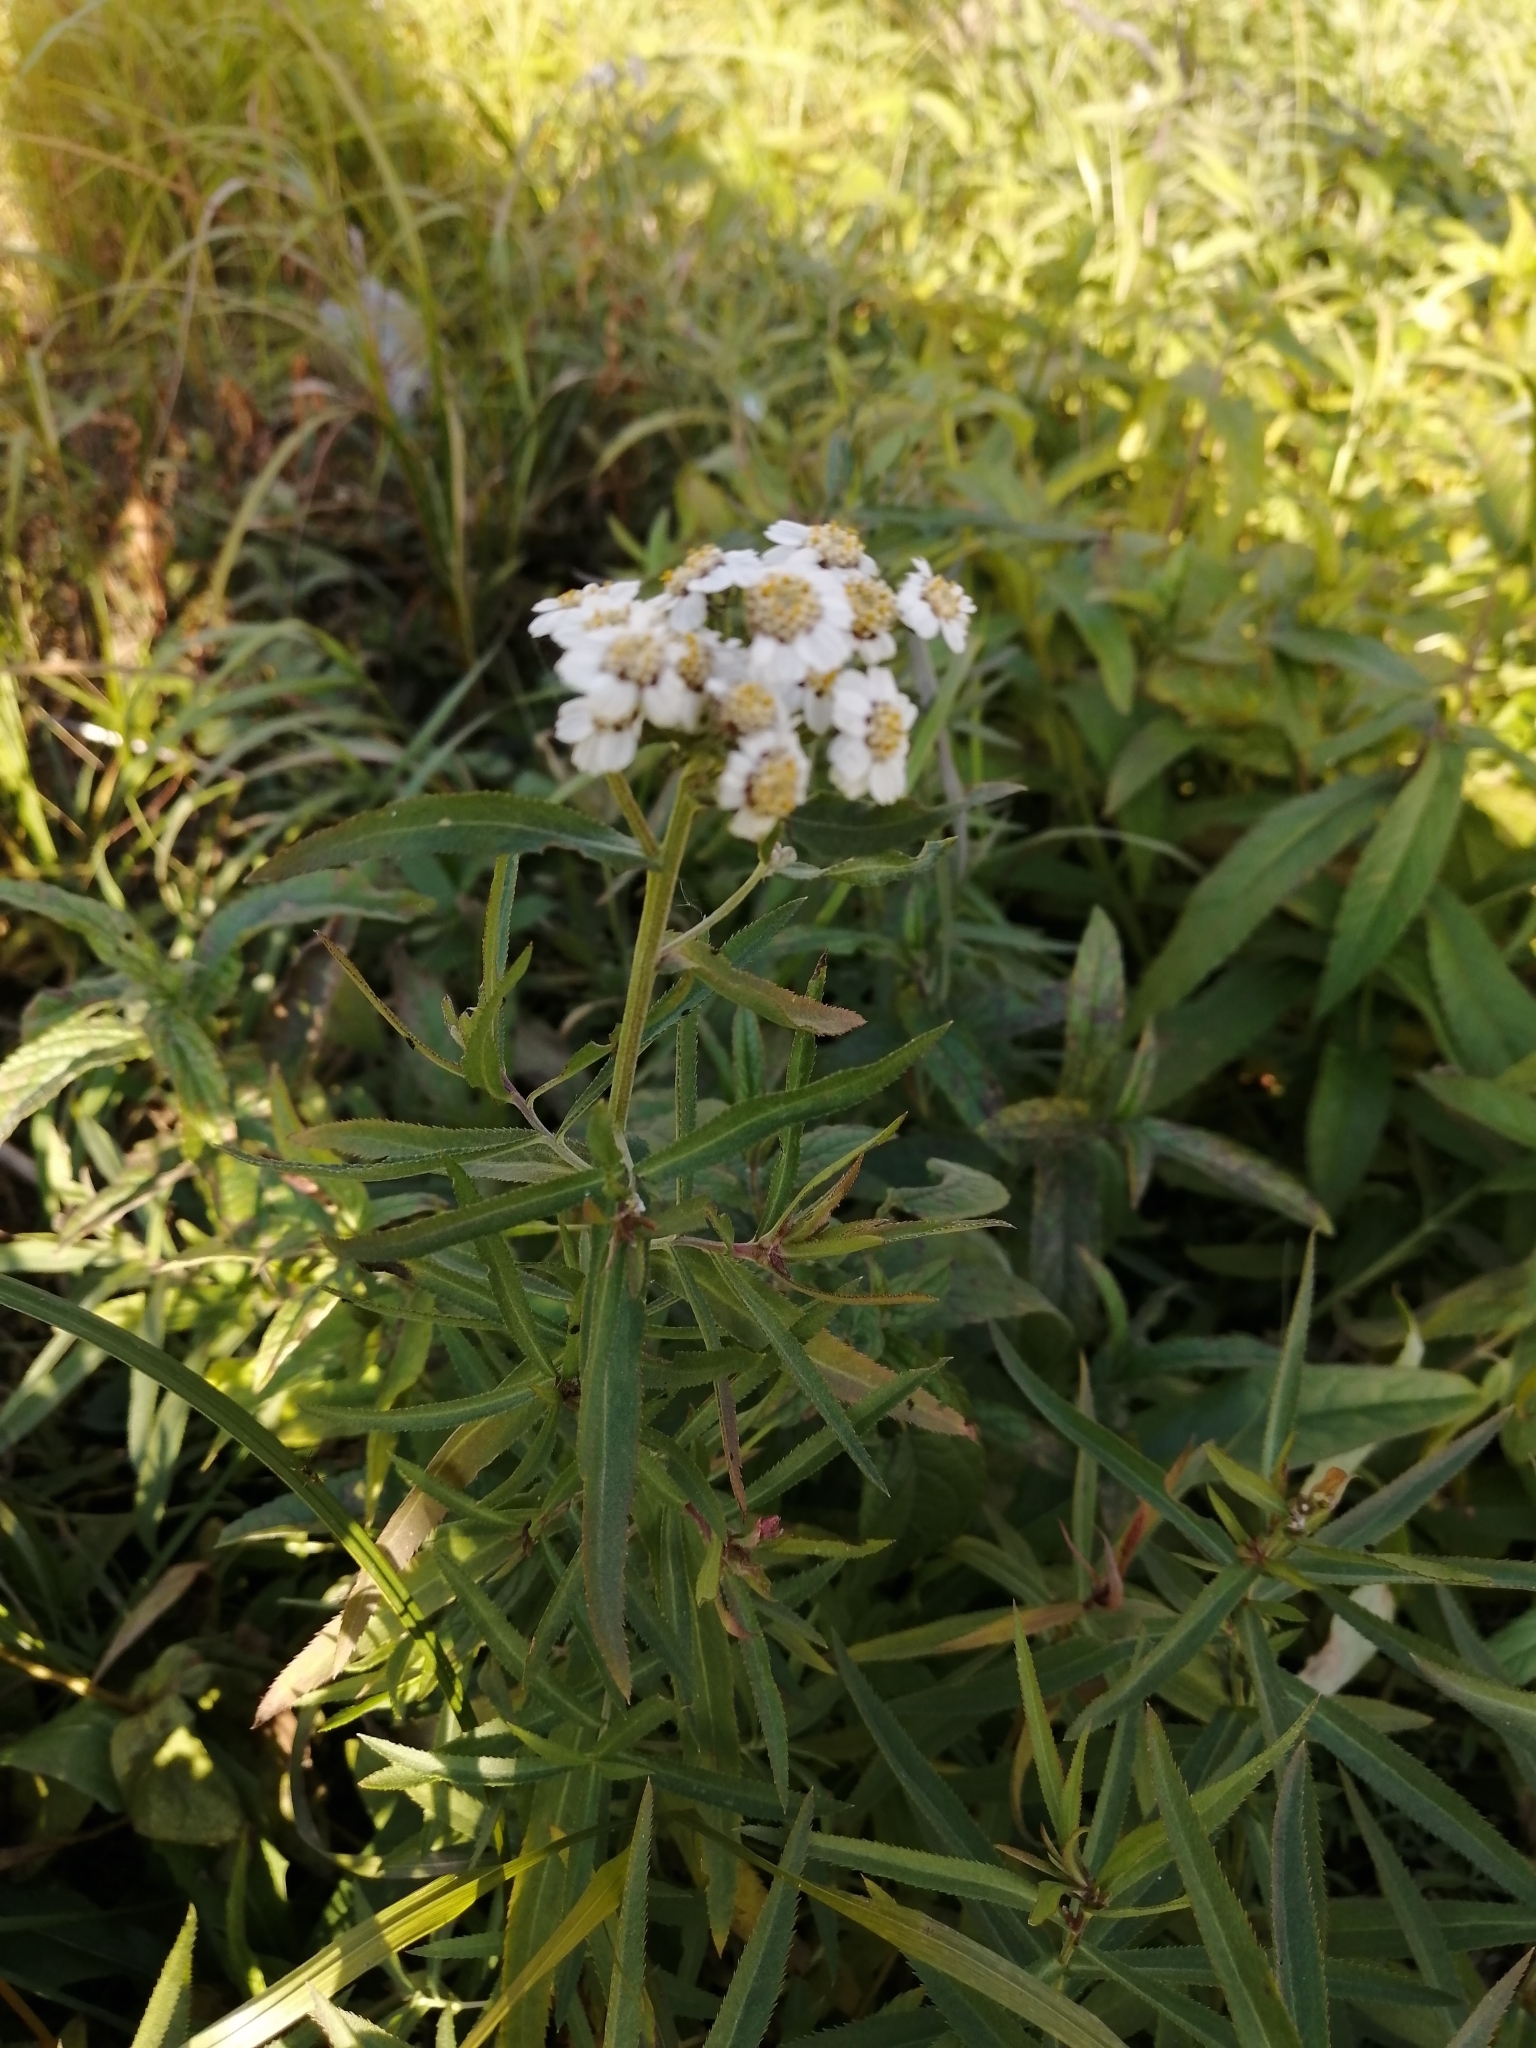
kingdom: Plantae
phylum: Tracheophyta
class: Magnoliopsida
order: Asterales
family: Asteraceae
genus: Achillea
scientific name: Achillea salicifolia
